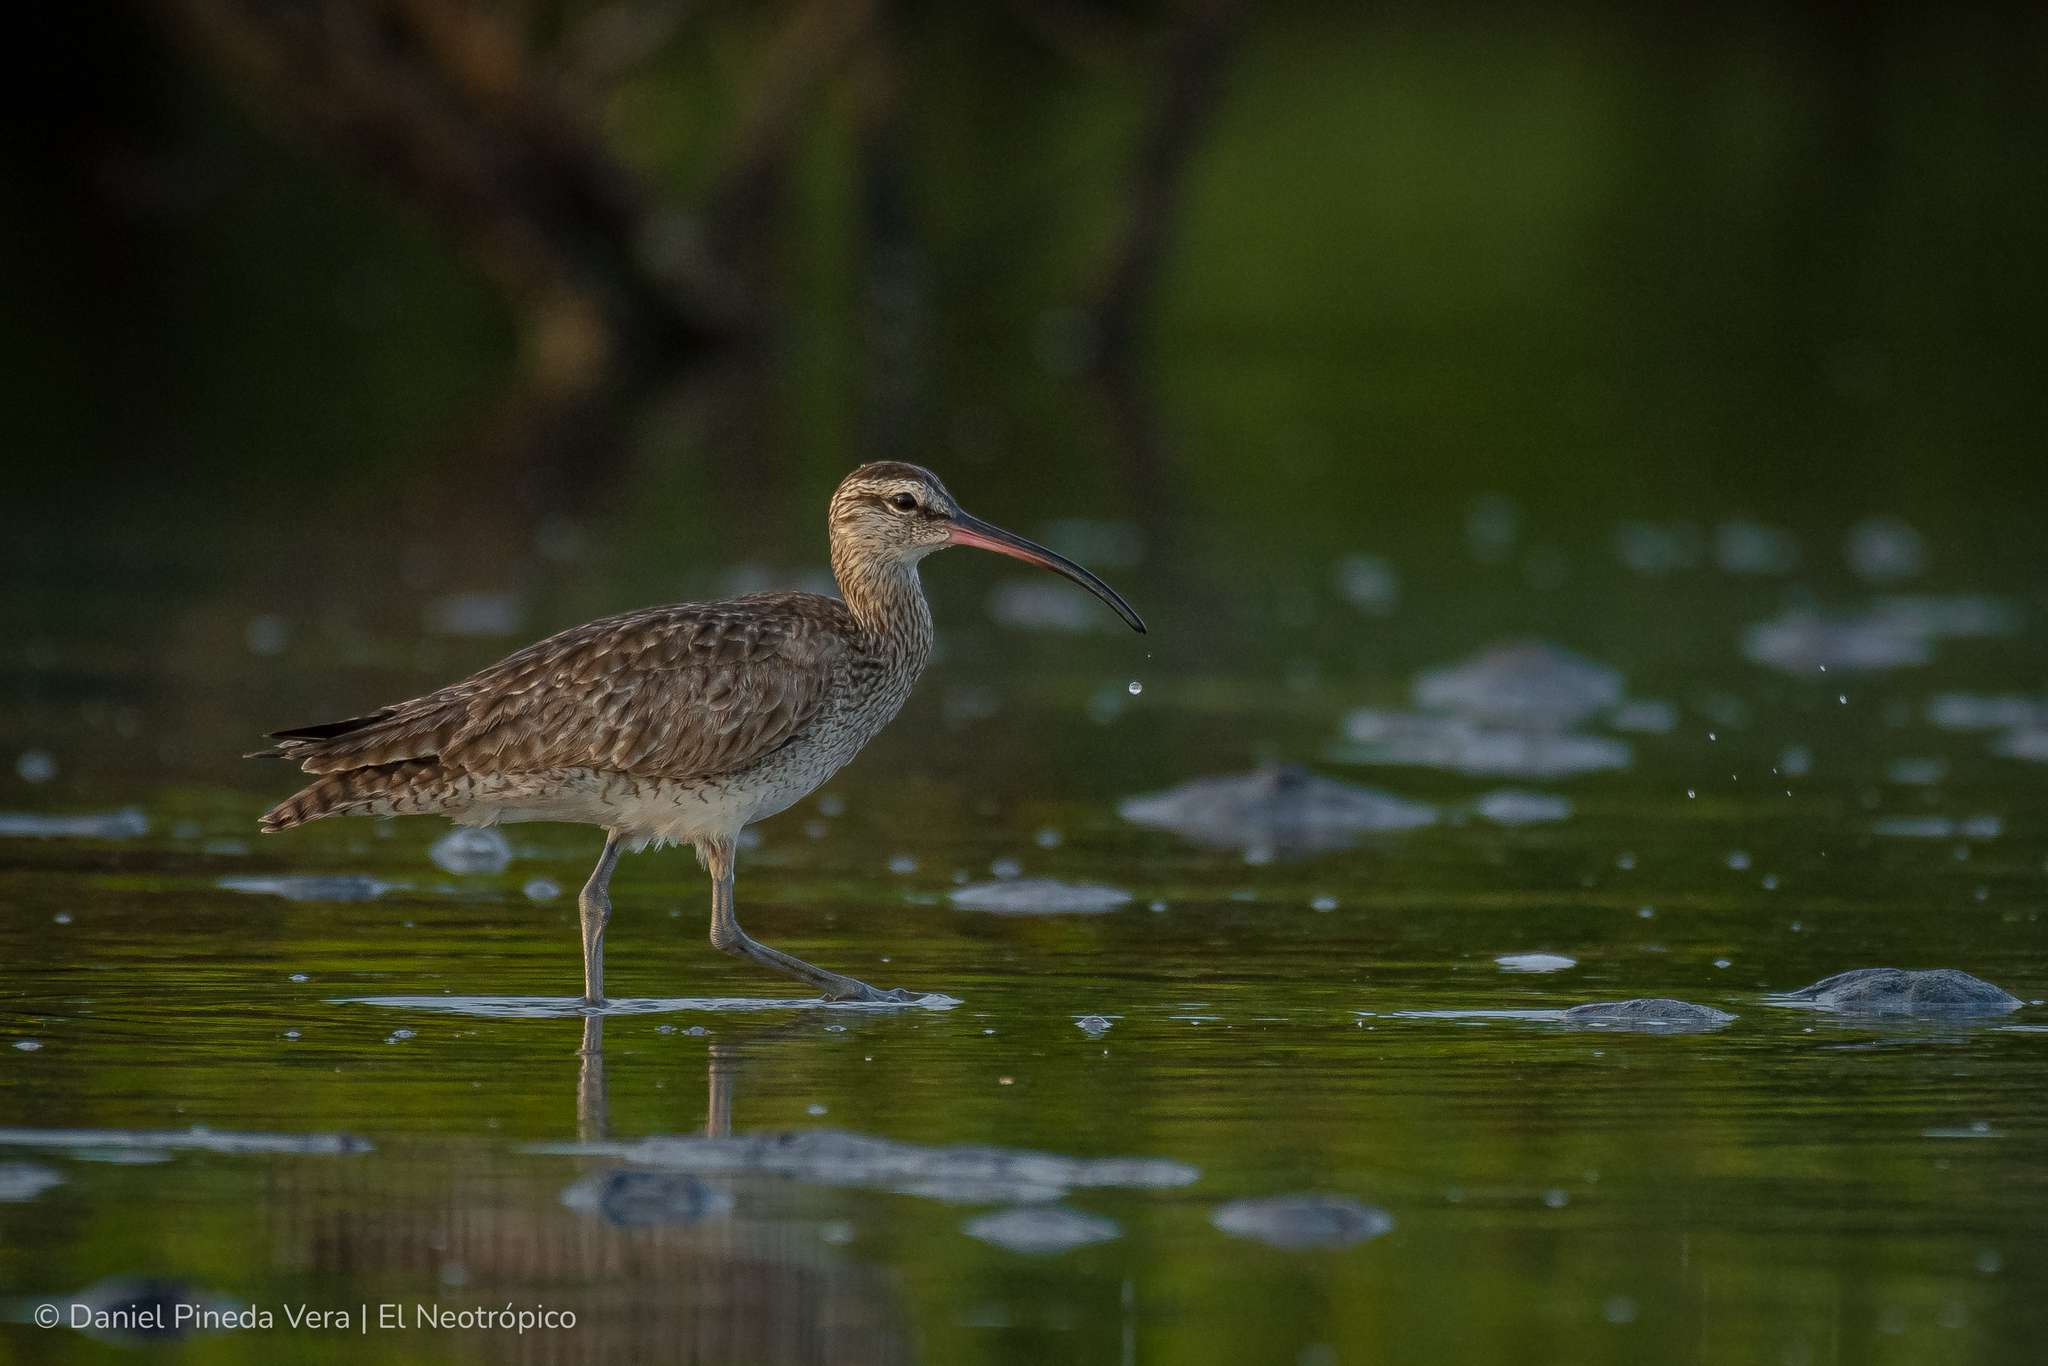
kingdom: Animalia
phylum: Chordata
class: Aves
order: Charadriiformes
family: Scolopacidae
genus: Numenius
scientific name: Numenius phaeopus
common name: Whimbrel
